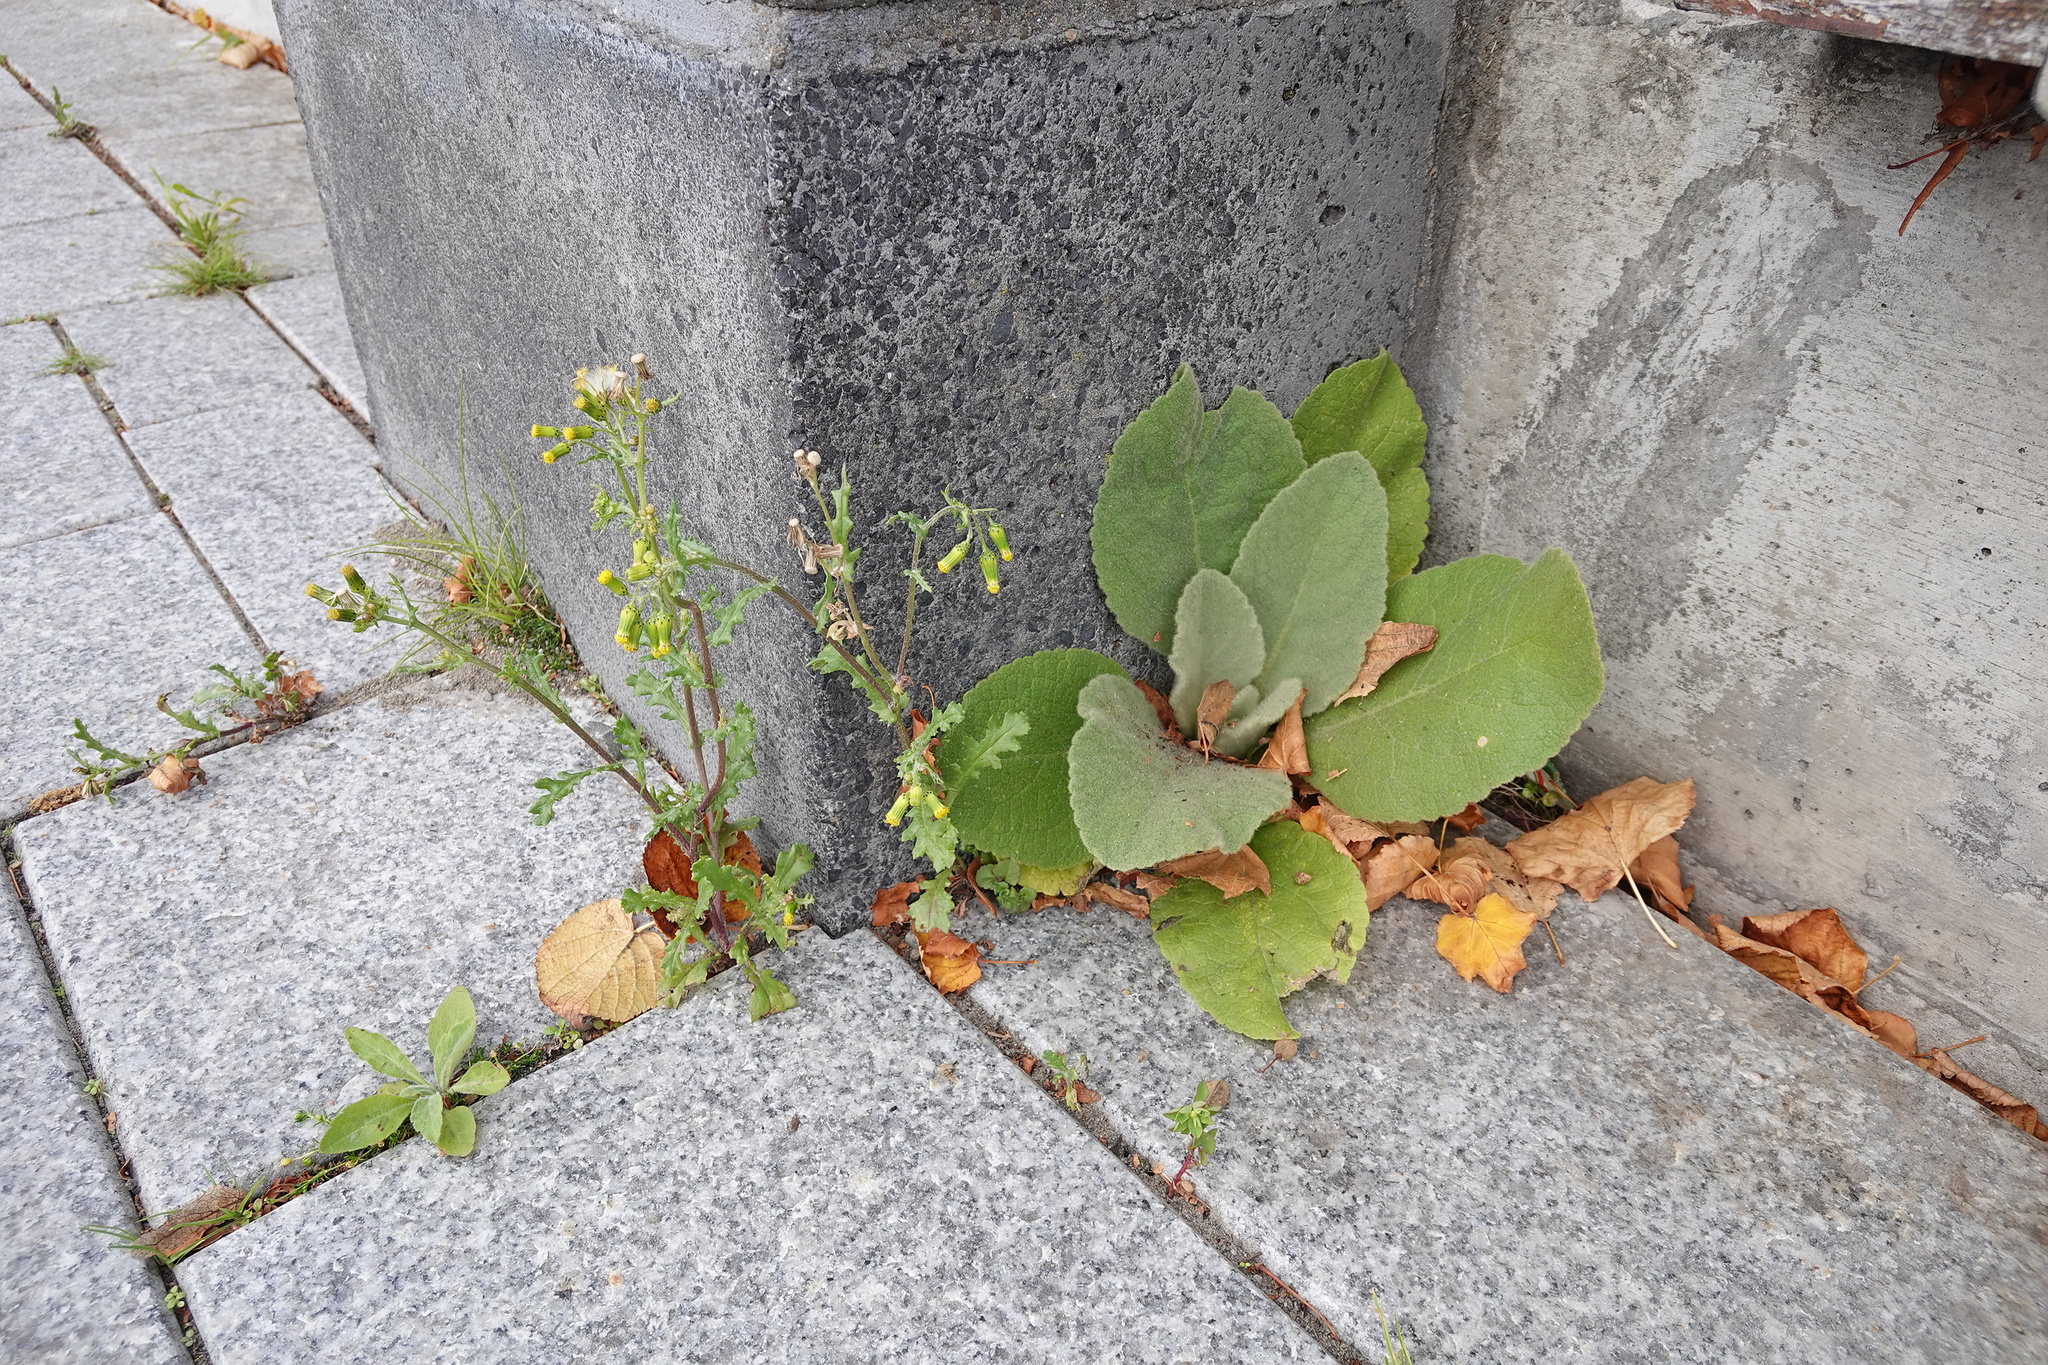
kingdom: Plantae
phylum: Tracheophyta
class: Magnoliopsida
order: Asterales
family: Asteraceae
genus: Senecio
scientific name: Senecio vulgaris
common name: Old-man-in-the-spring
